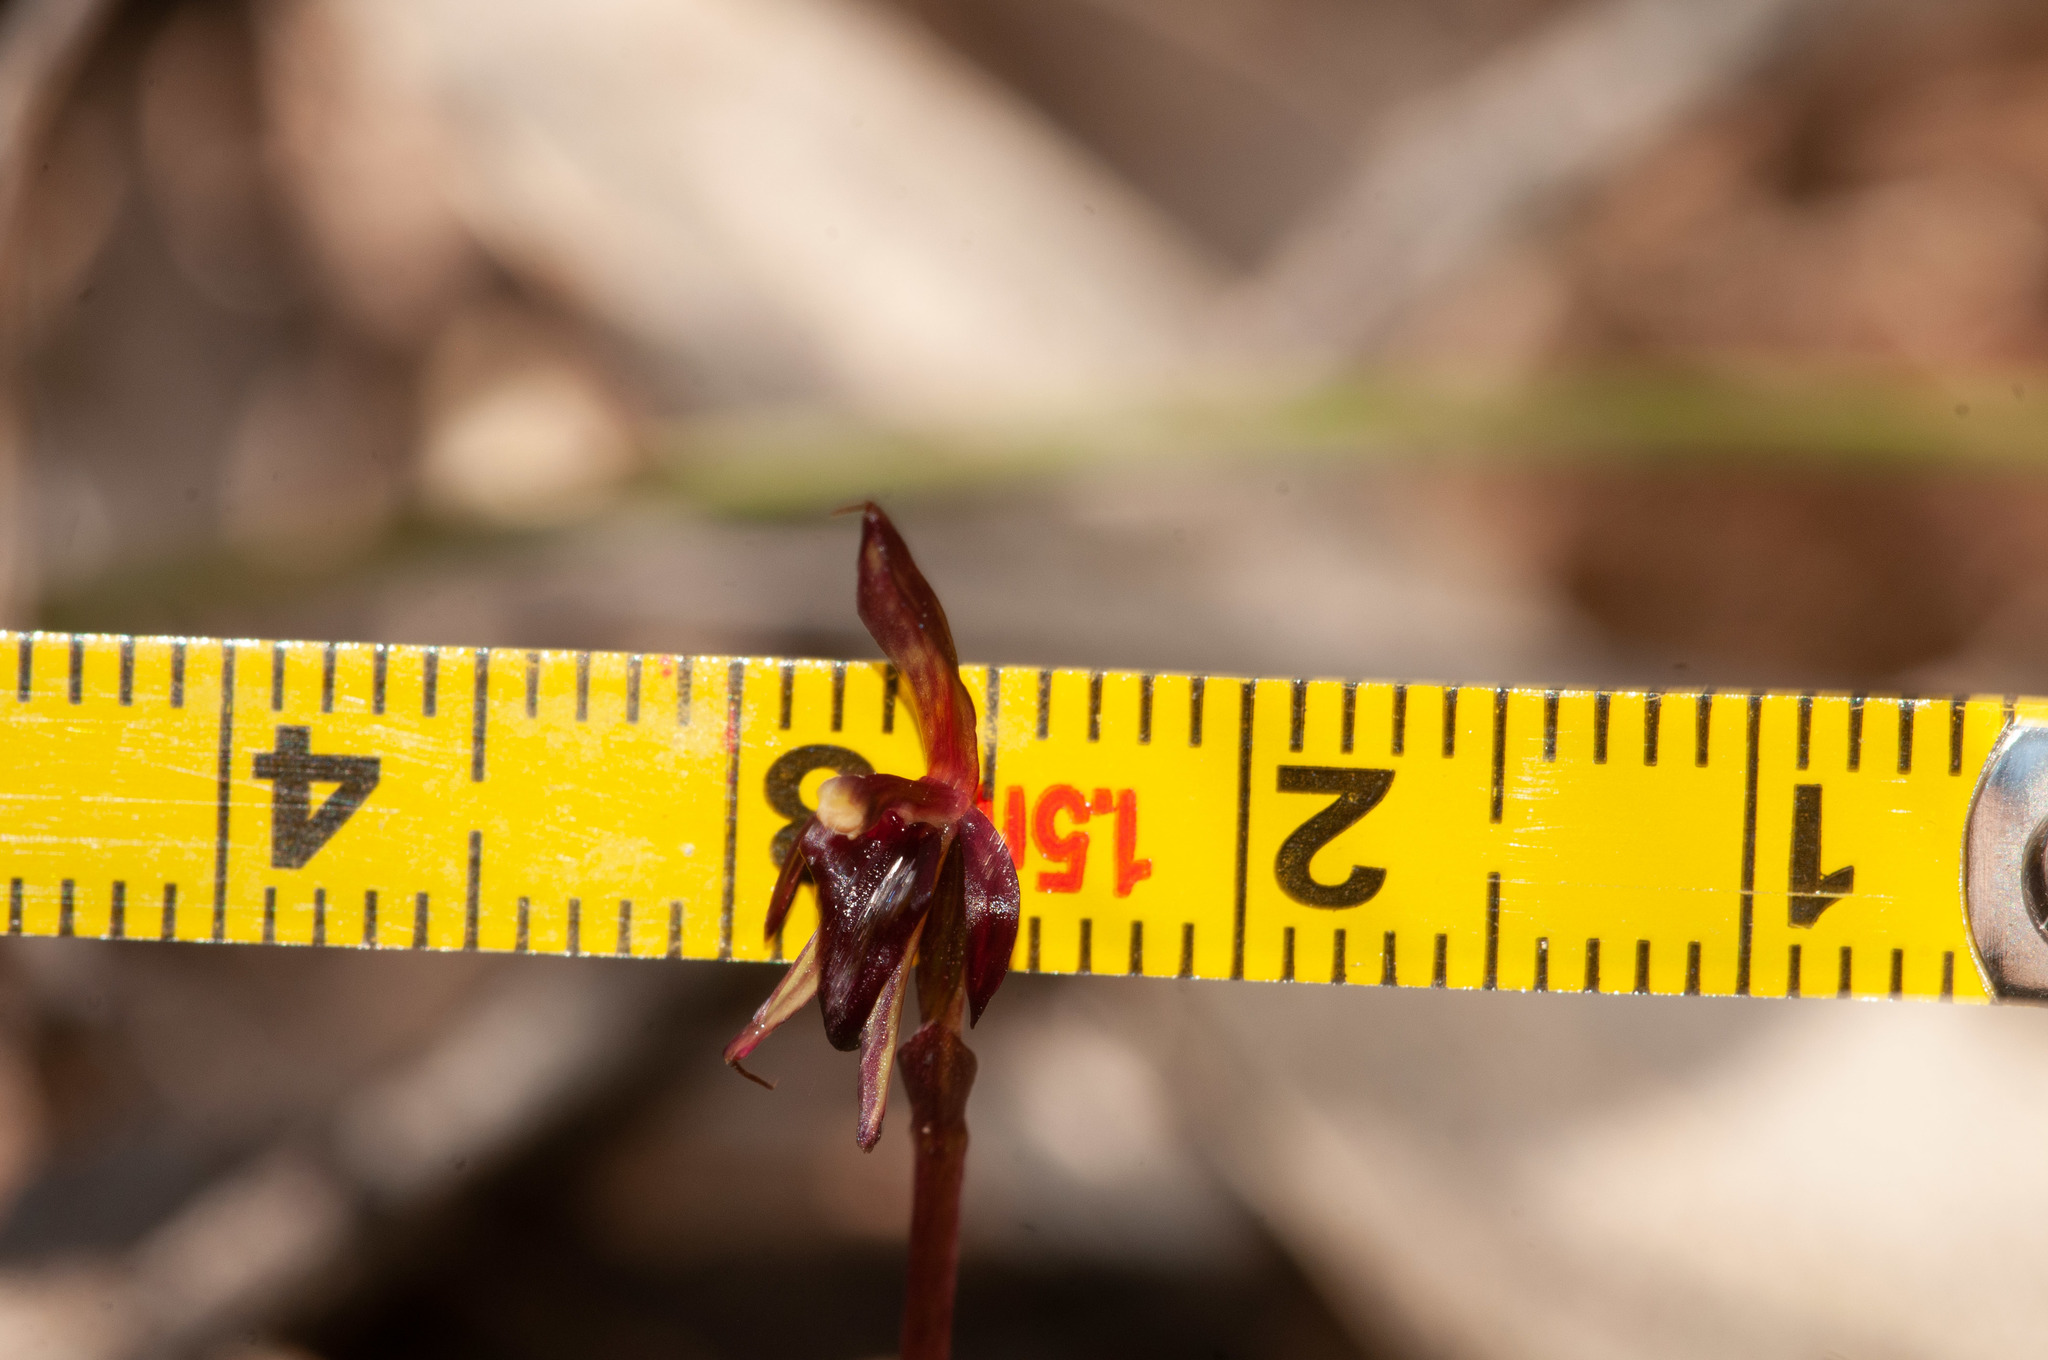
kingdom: Plantae
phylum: Tracheophyta
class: Liliopsida
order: Asparagales
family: Orchidaceae
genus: Acianthus
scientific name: Acianthus caudatus
